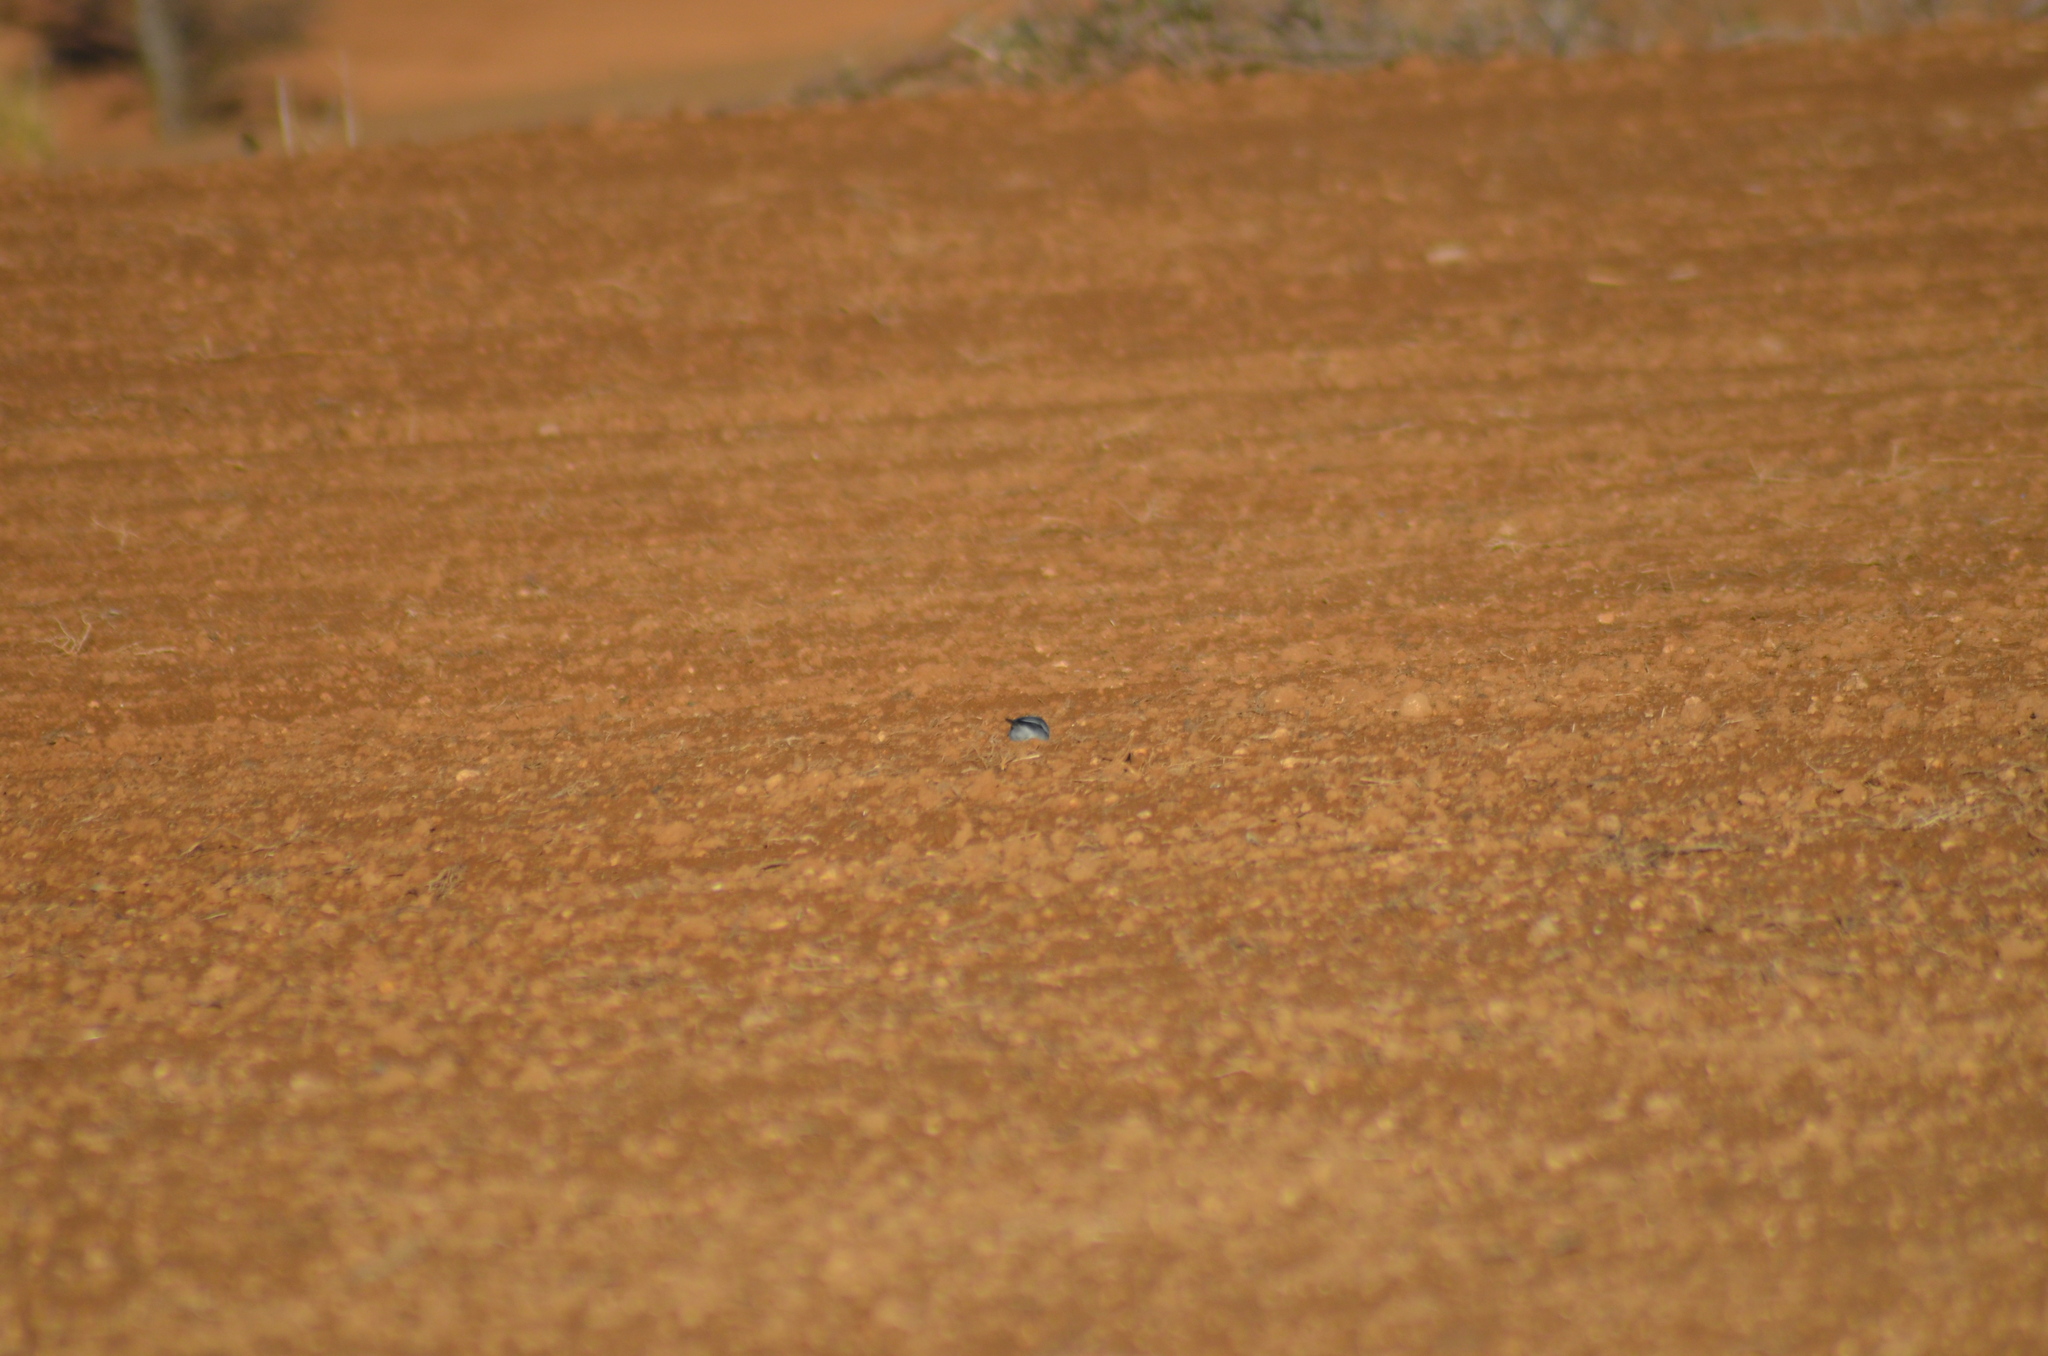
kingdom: Animalia
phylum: Chordata
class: Aves
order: Passeriformes
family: Motacillidae
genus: Motacilla
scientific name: Motacilla alba
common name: White wagtail
